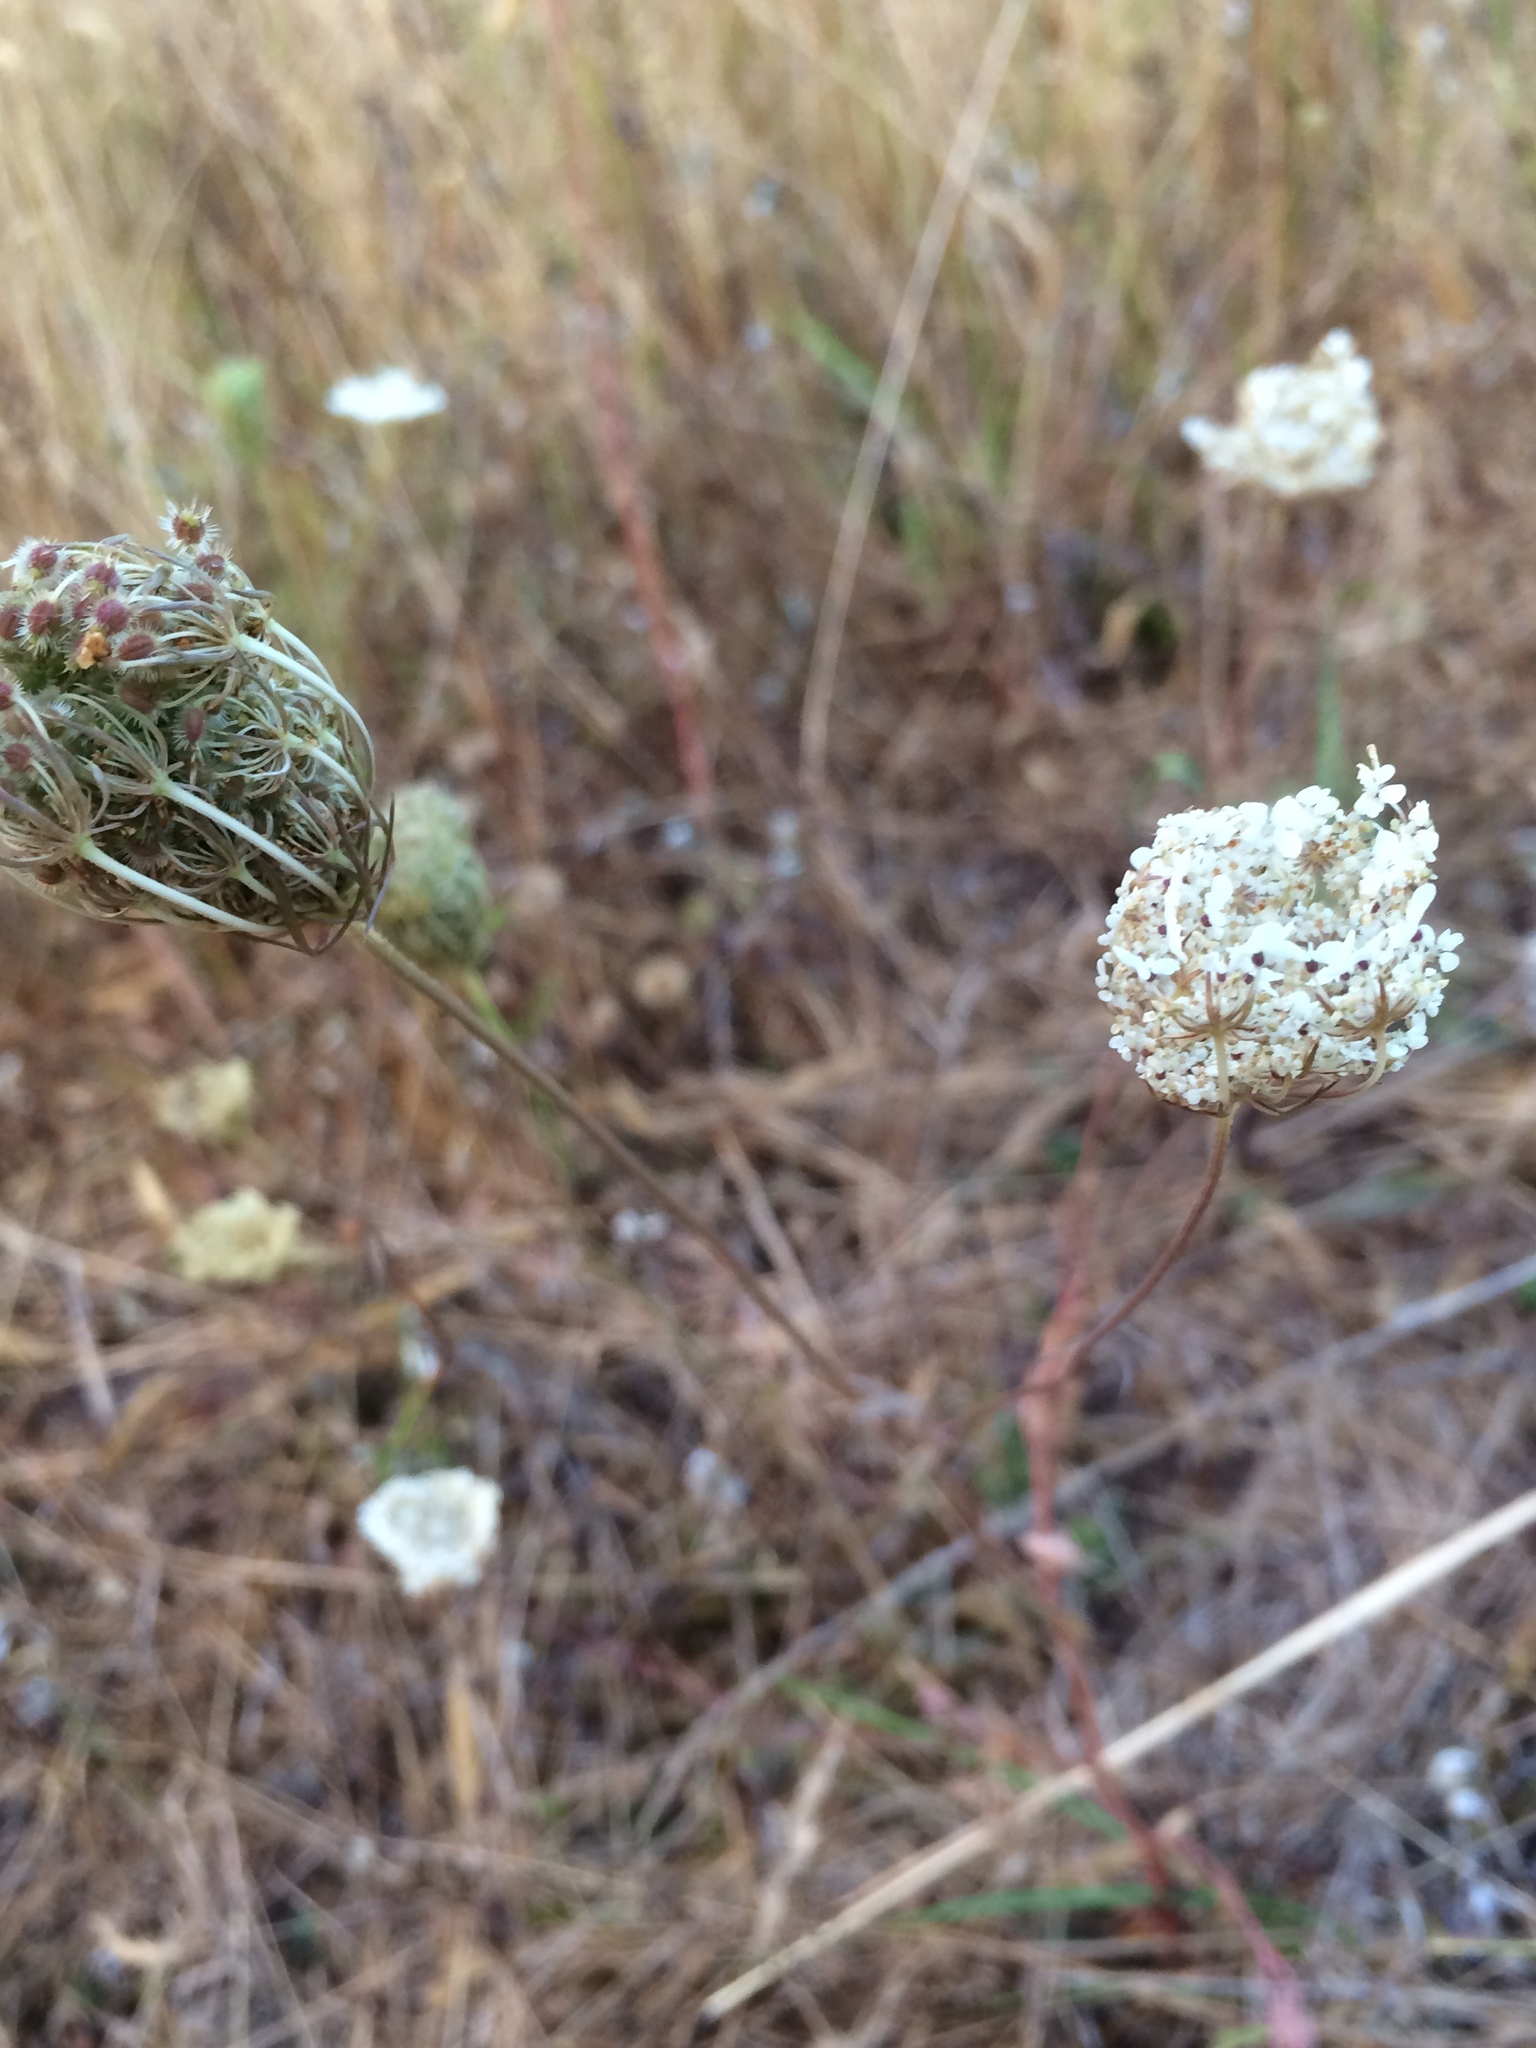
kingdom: Plantae
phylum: Tracheophyta
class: Magnoliopsida
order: Apiales
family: Apiaceae
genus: Daucus
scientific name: Daucus carota
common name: Wild carrot
